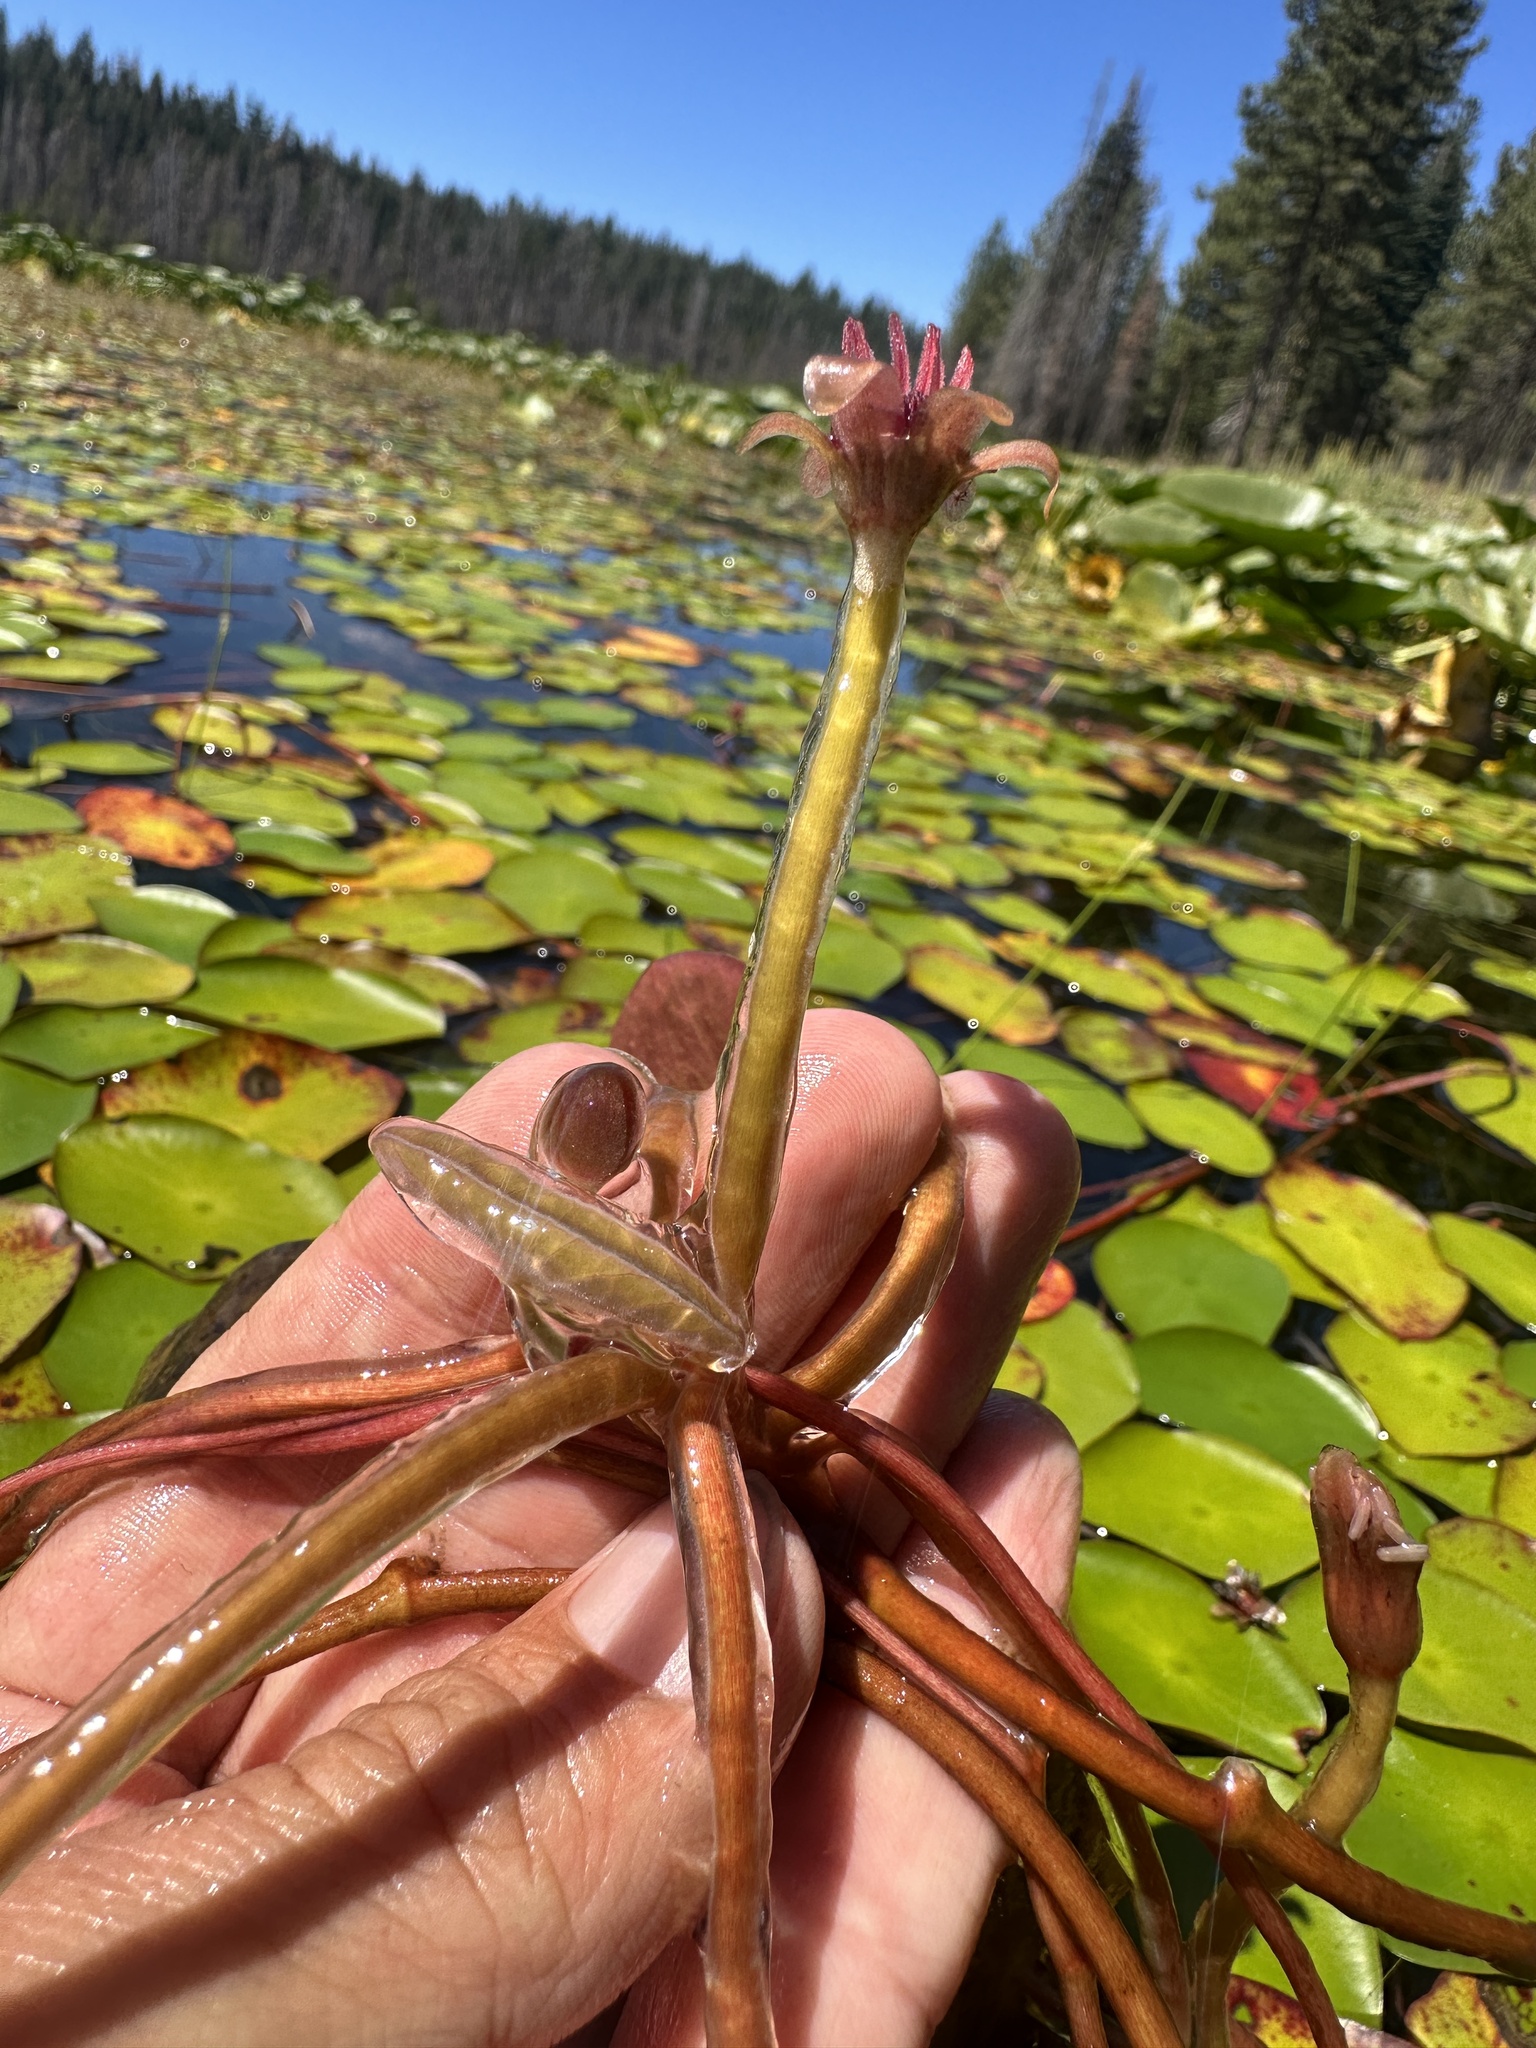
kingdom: Plantae
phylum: Tracheophyta
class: Magnoliopsida
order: Nymphaeales
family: Cabombaceae
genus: Brasenia
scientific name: Brasenia schreberi
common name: Water-shield
